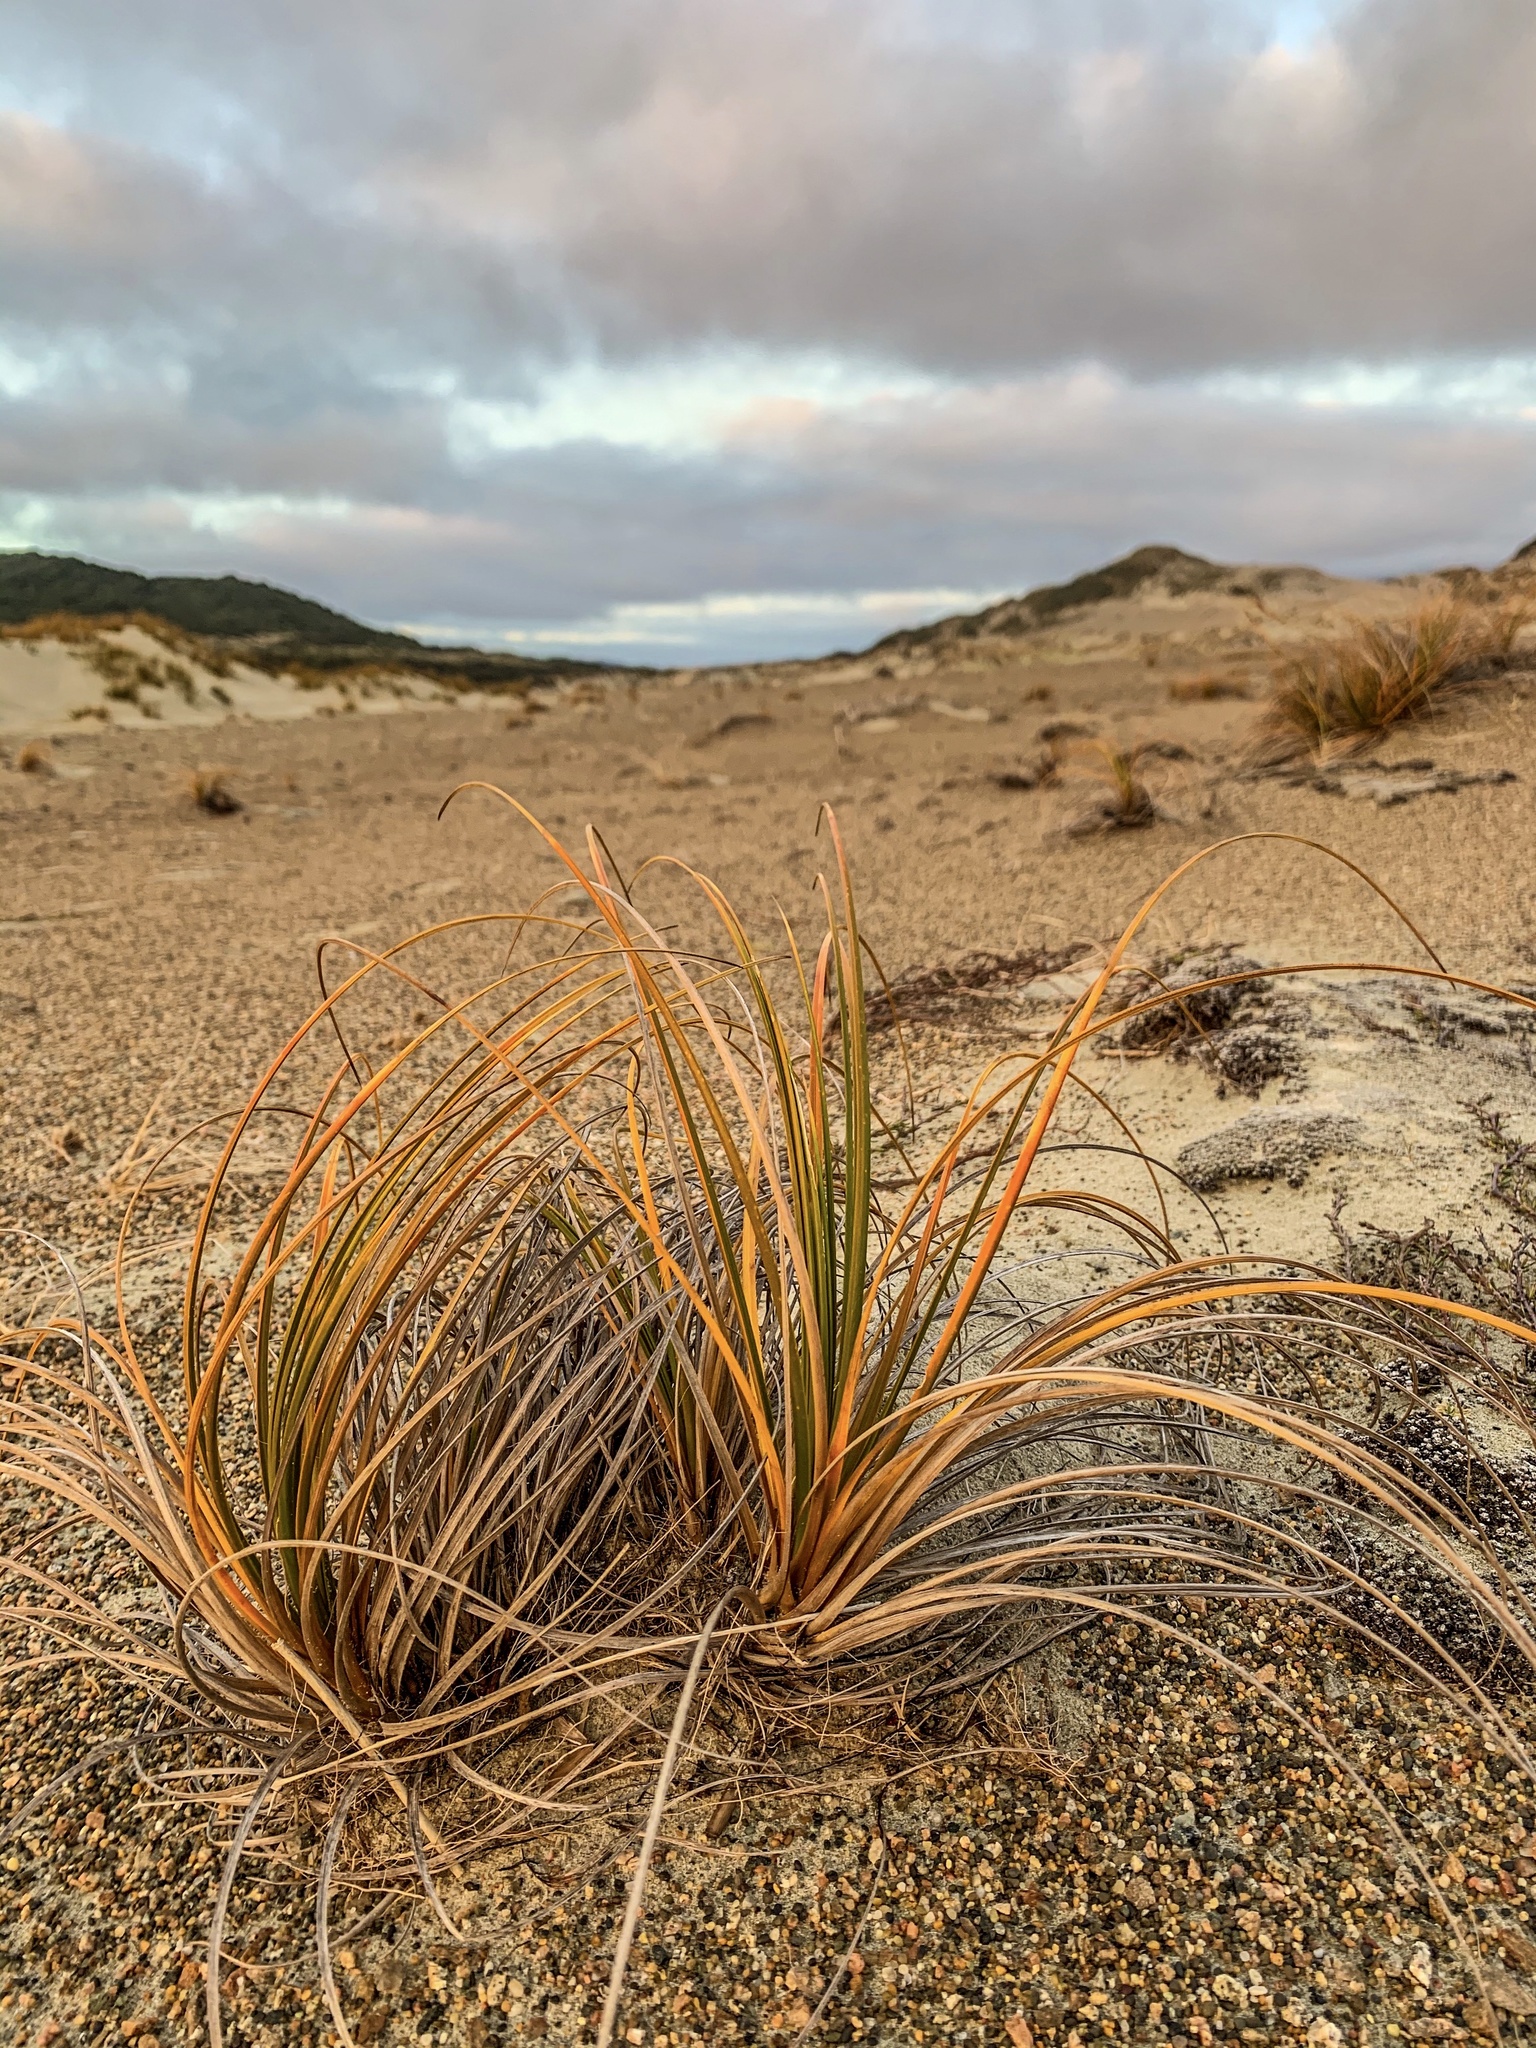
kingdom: Plantae
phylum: Tracheophyta
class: Liliopsida
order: Poales
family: Cyperaceae
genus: Ficinia
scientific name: Ficinia spiralis
